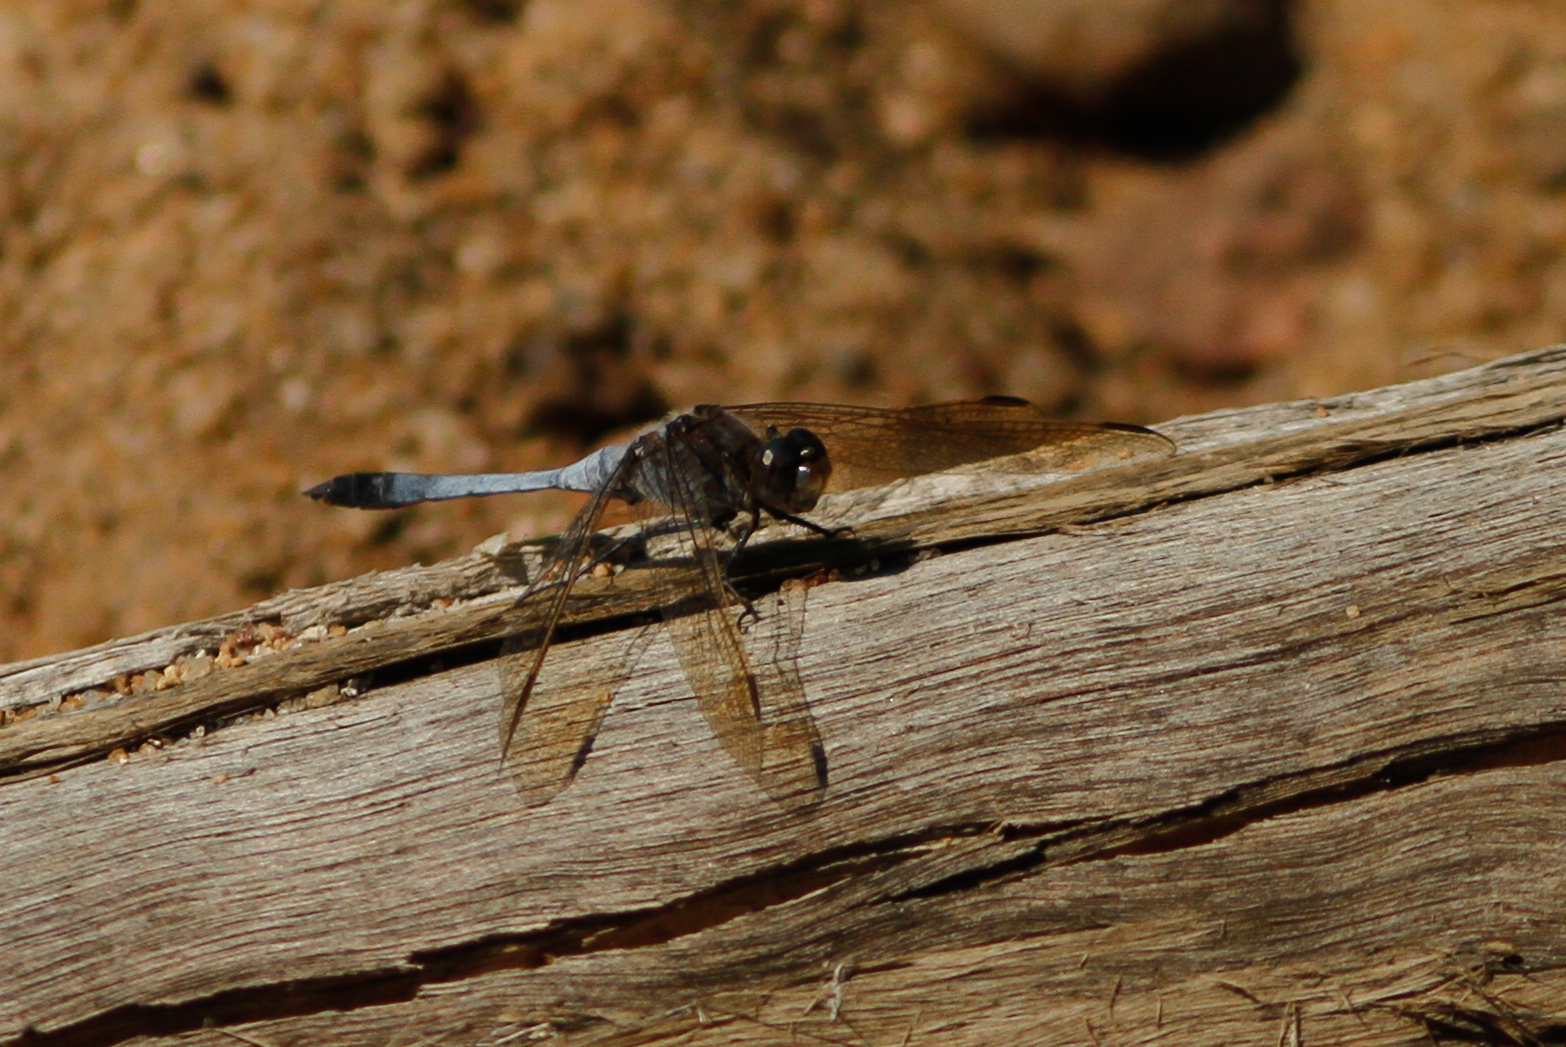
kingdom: Animalia
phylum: Arthropoda
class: Insecta
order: Odonata
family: Libellulidae
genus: Orthetrum
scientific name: Orthetrum caledonicum
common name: Blue skimmer
